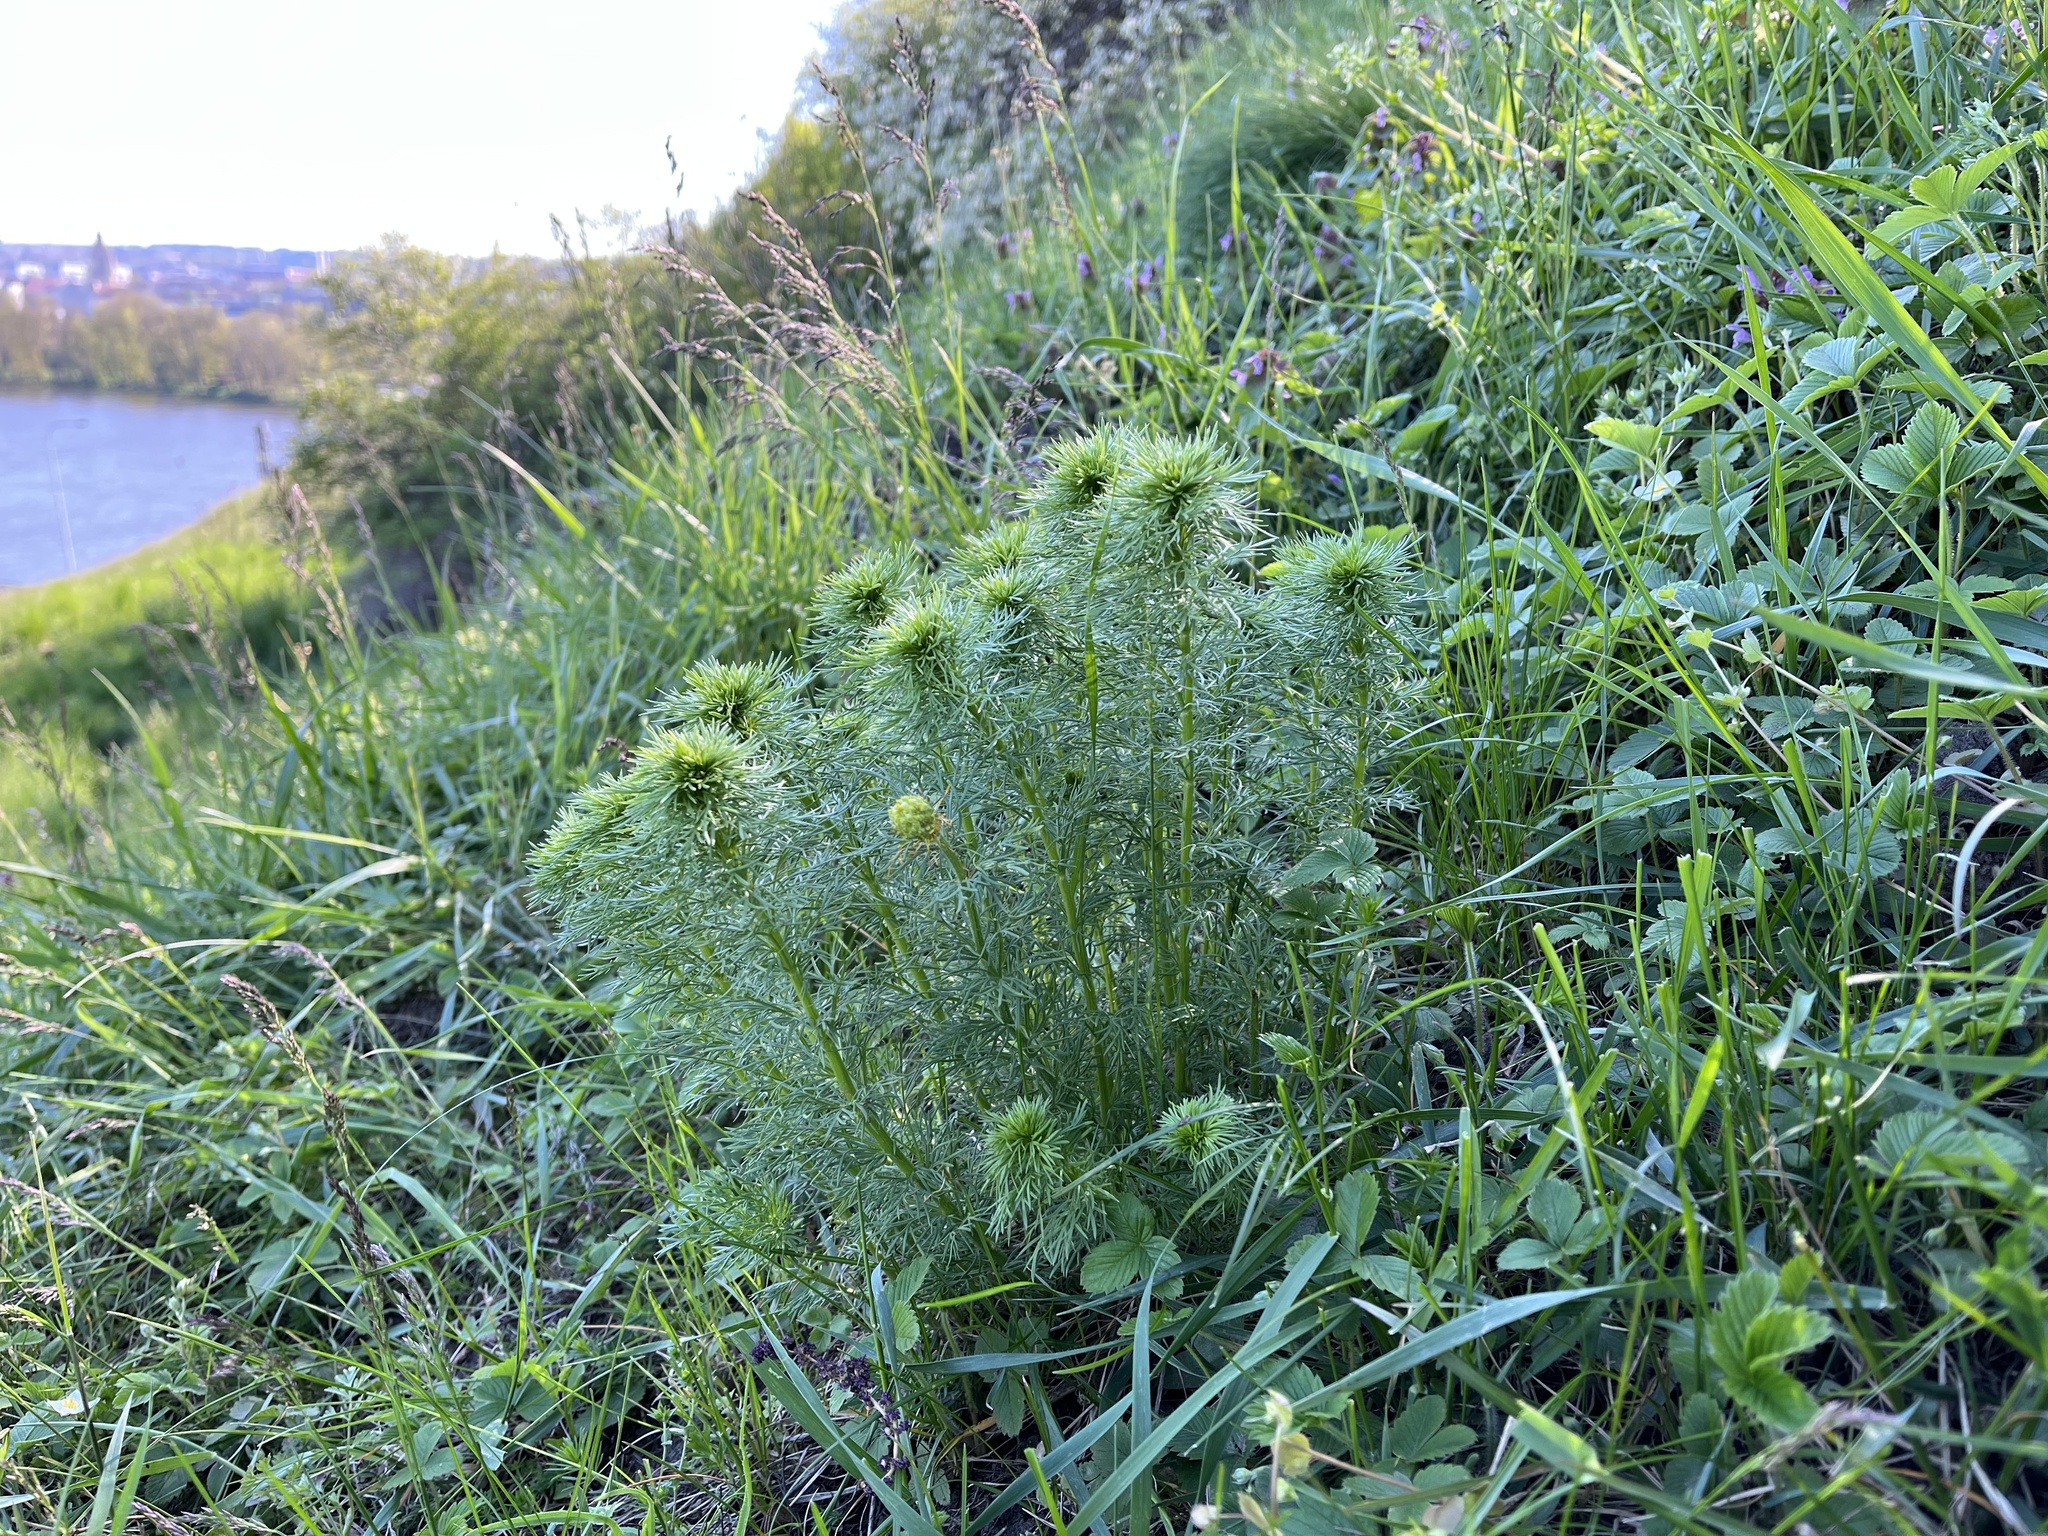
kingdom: Plantae
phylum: Tracheophyta
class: Magnoliopsida
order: Ranunculales
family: Ranunculaceae
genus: Adonis
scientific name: Adonis vernalis
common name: Yellow pheasants-eye
